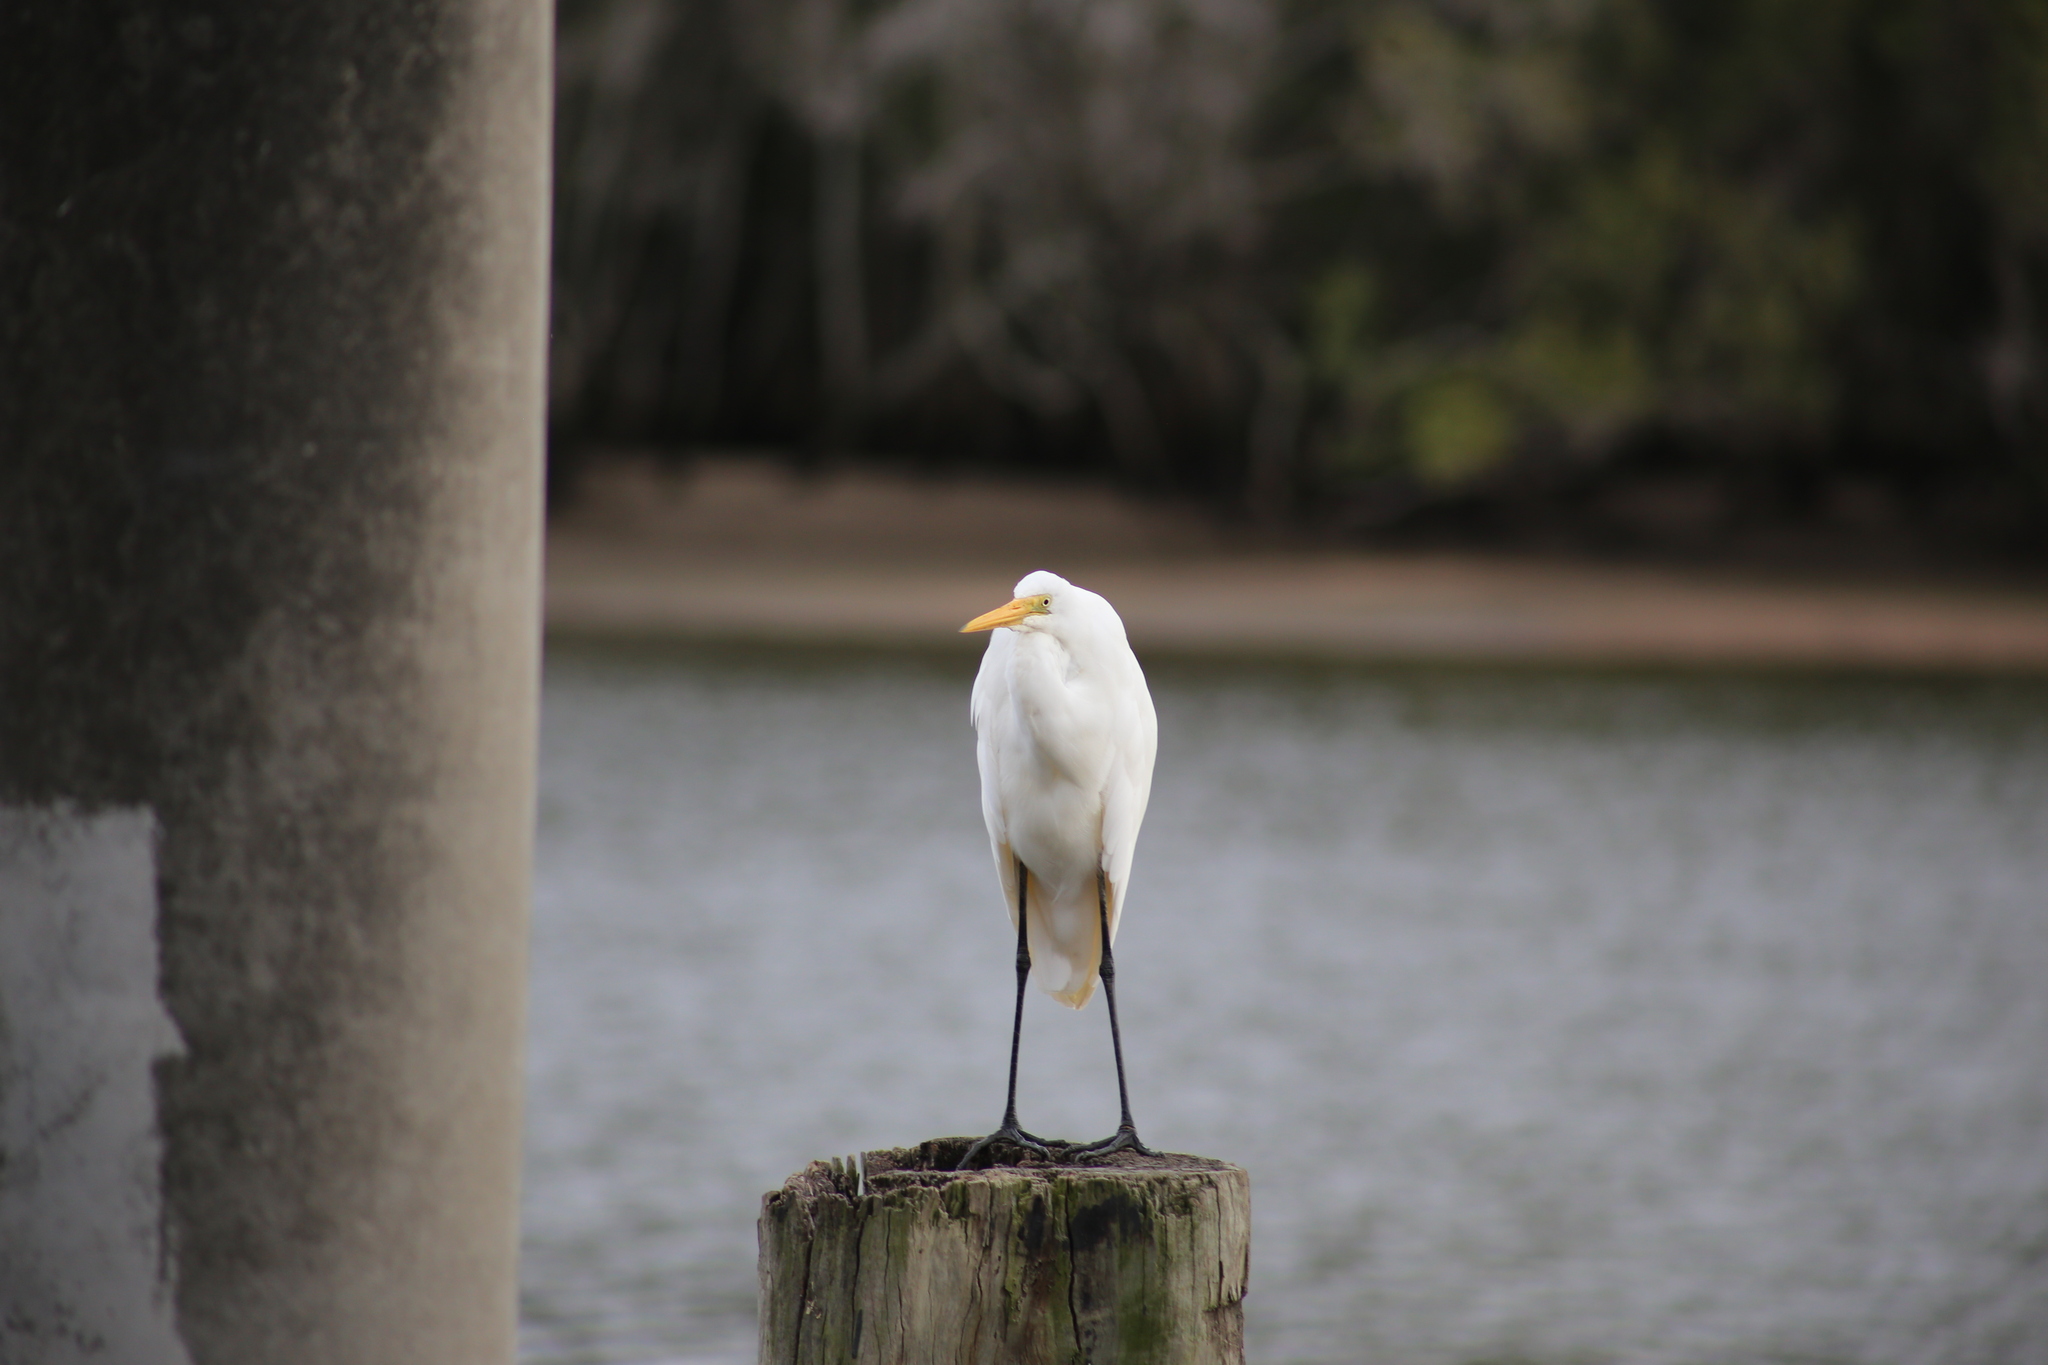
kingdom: Animalia
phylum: Chordata
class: Aves
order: Pelecaniformes
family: Ardeidae
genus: Ardea
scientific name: Ardea modesta
